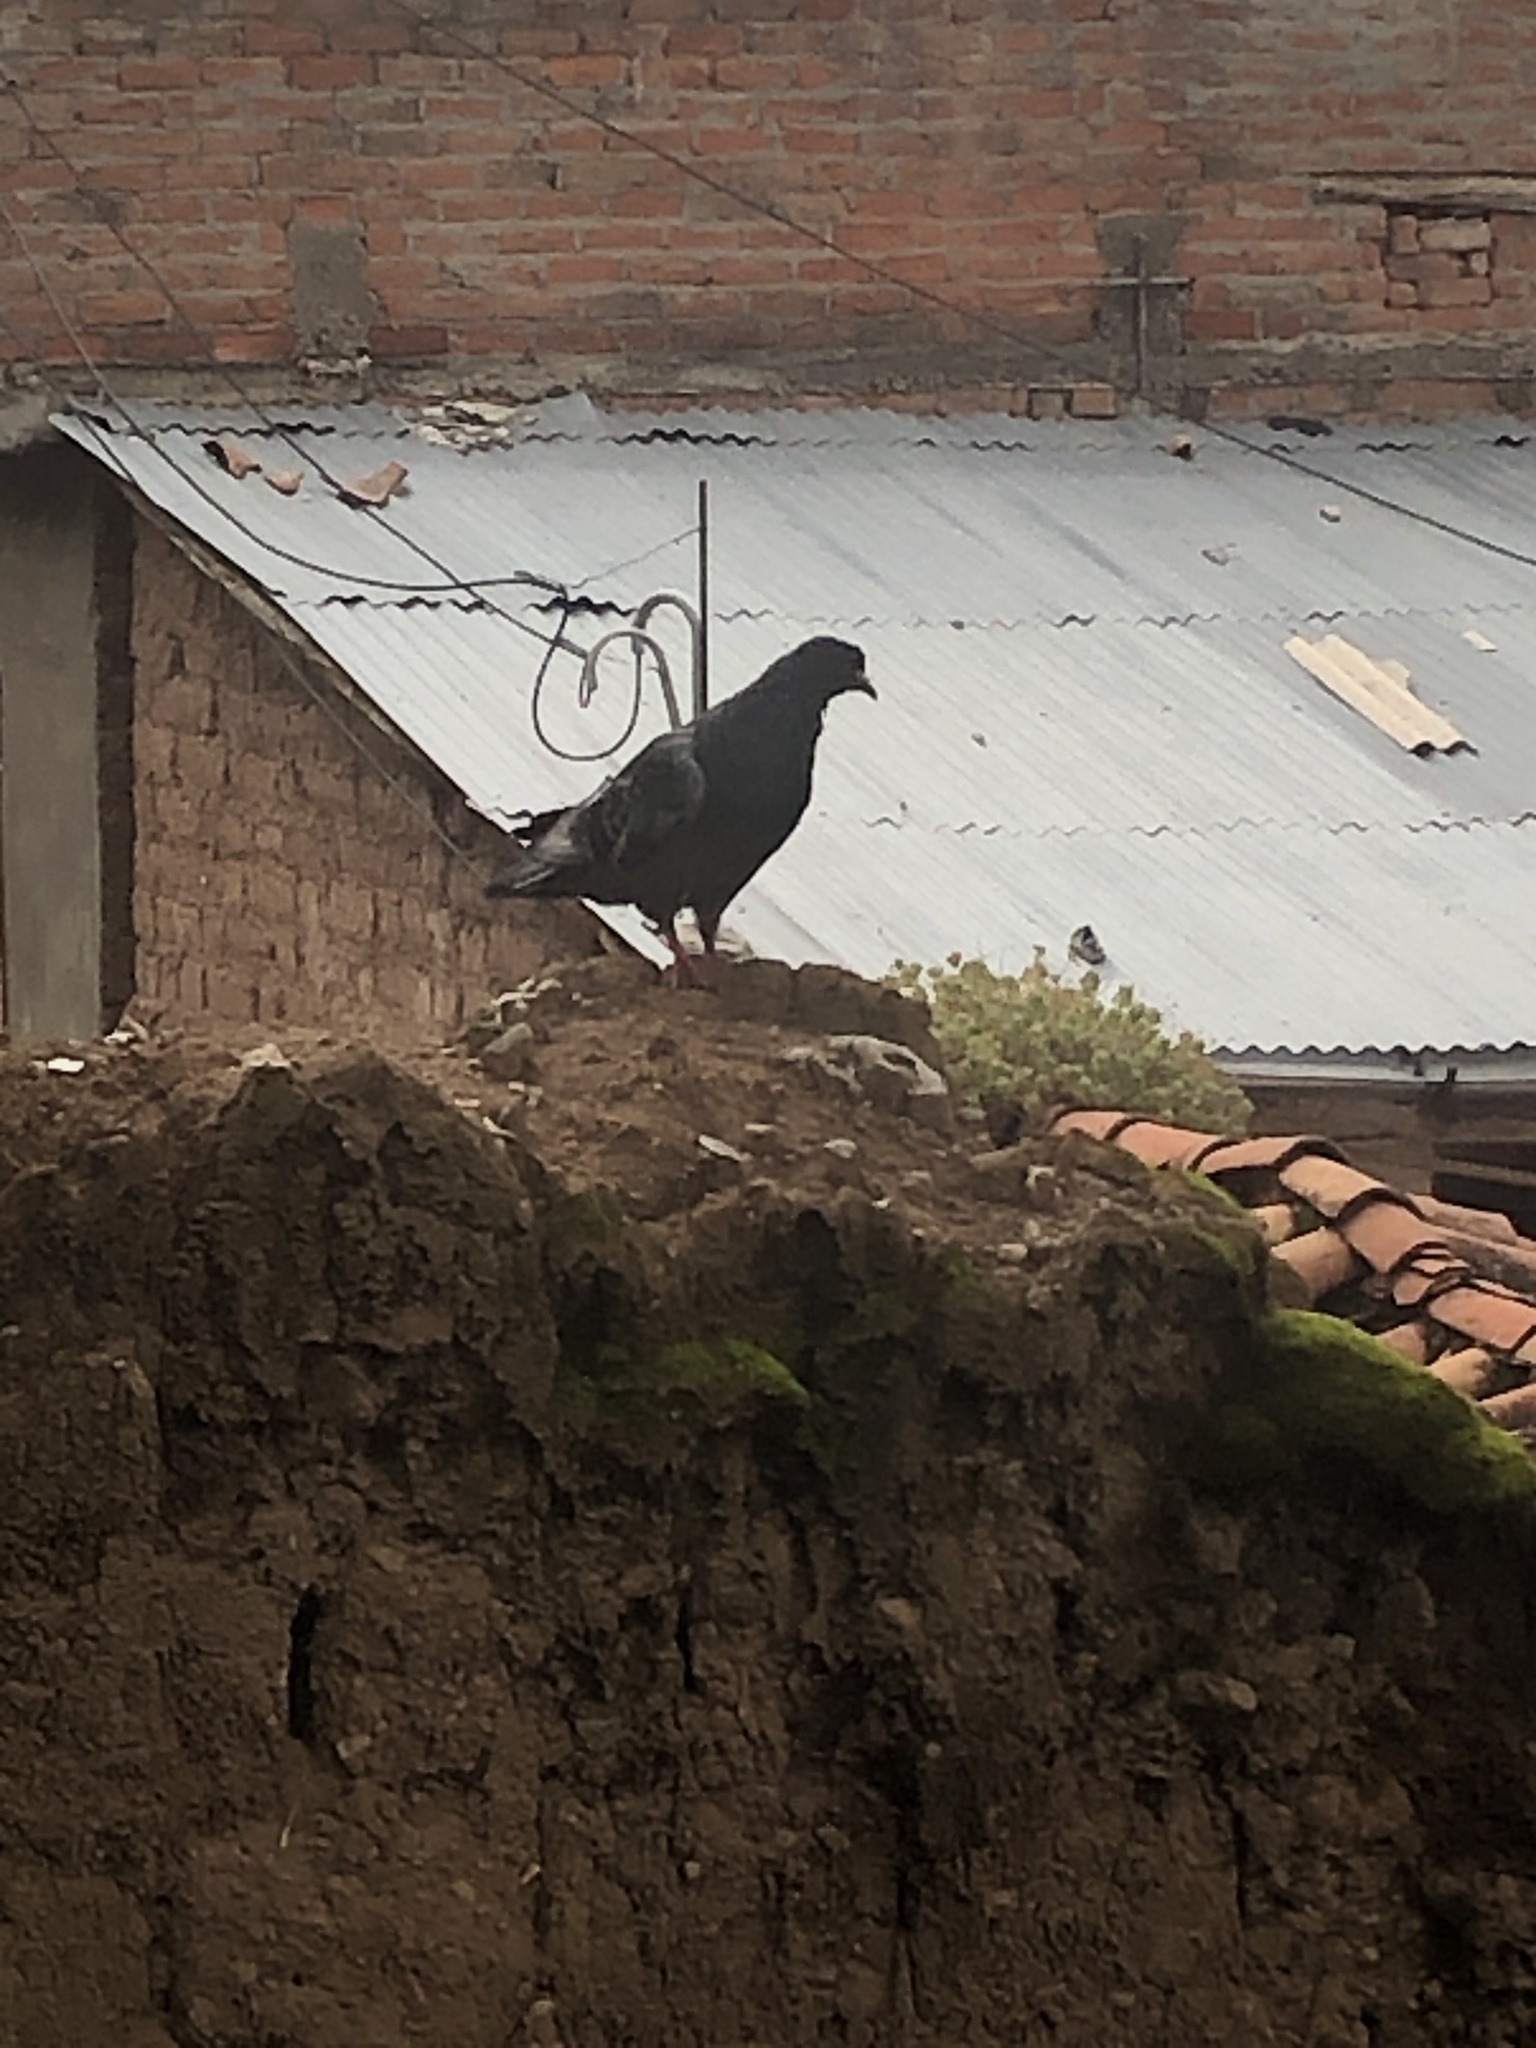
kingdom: Animalia
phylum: Chordata
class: Aves
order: Columbiformes
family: Columbidae
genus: Columba
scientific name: Columba livia
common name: Rock pigeon
